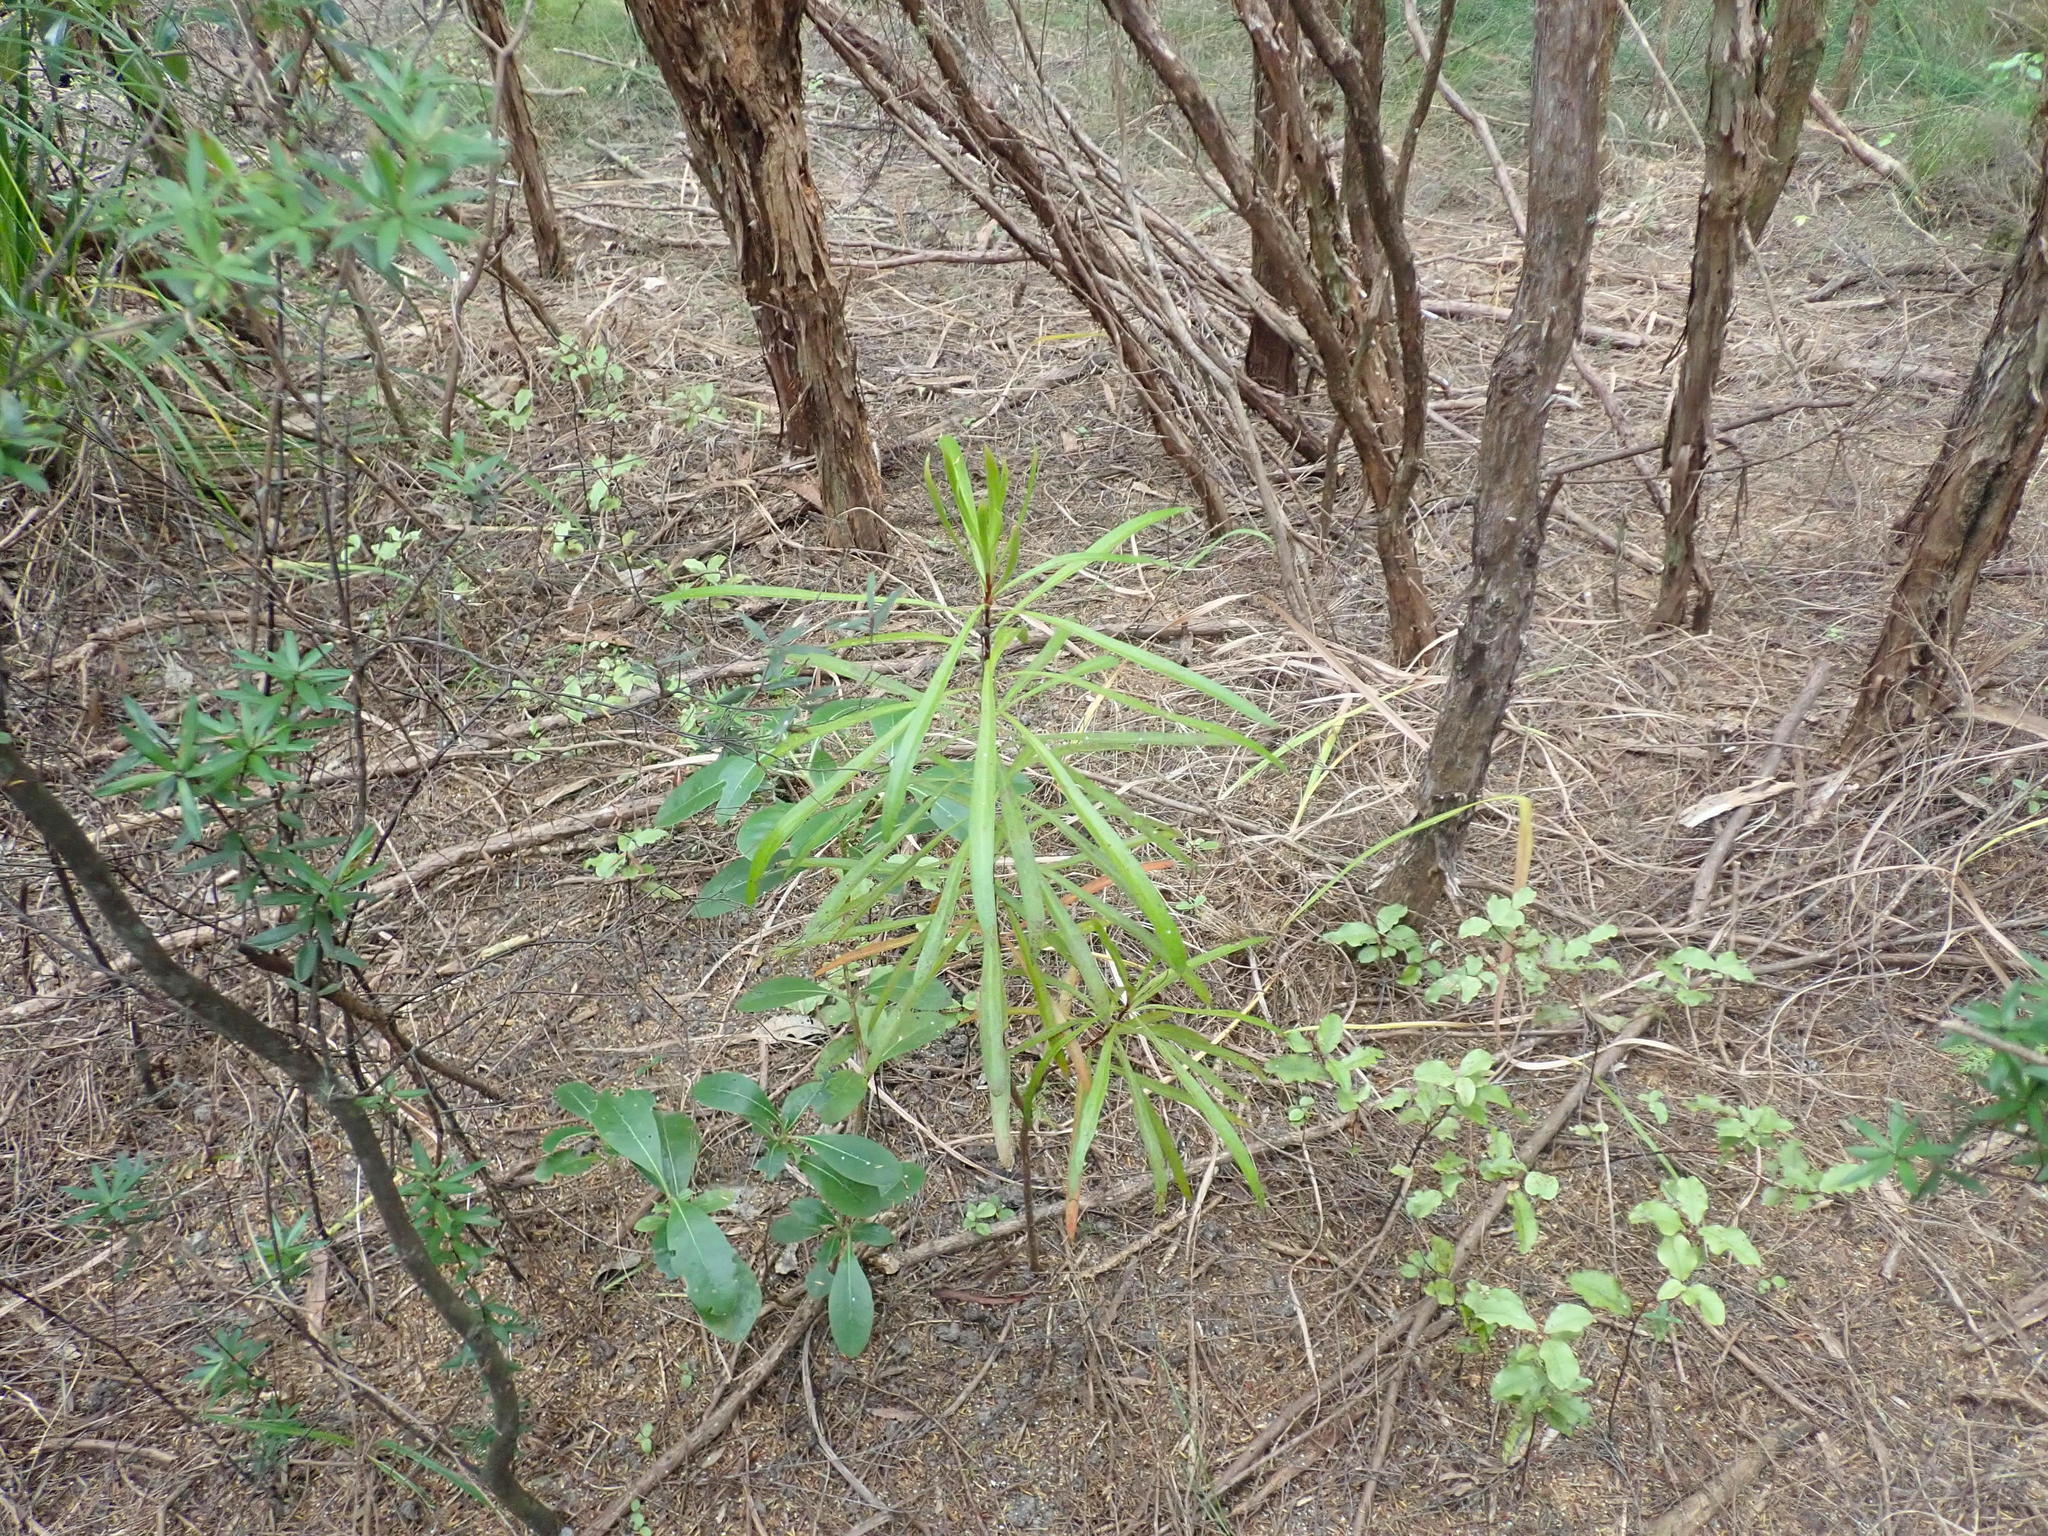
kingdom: Plantae
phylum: Tracheophyta
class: Magnoliopsida
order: Gentianales
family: Rubiaceae
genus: Coprosma
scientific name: Coprosma lucida
